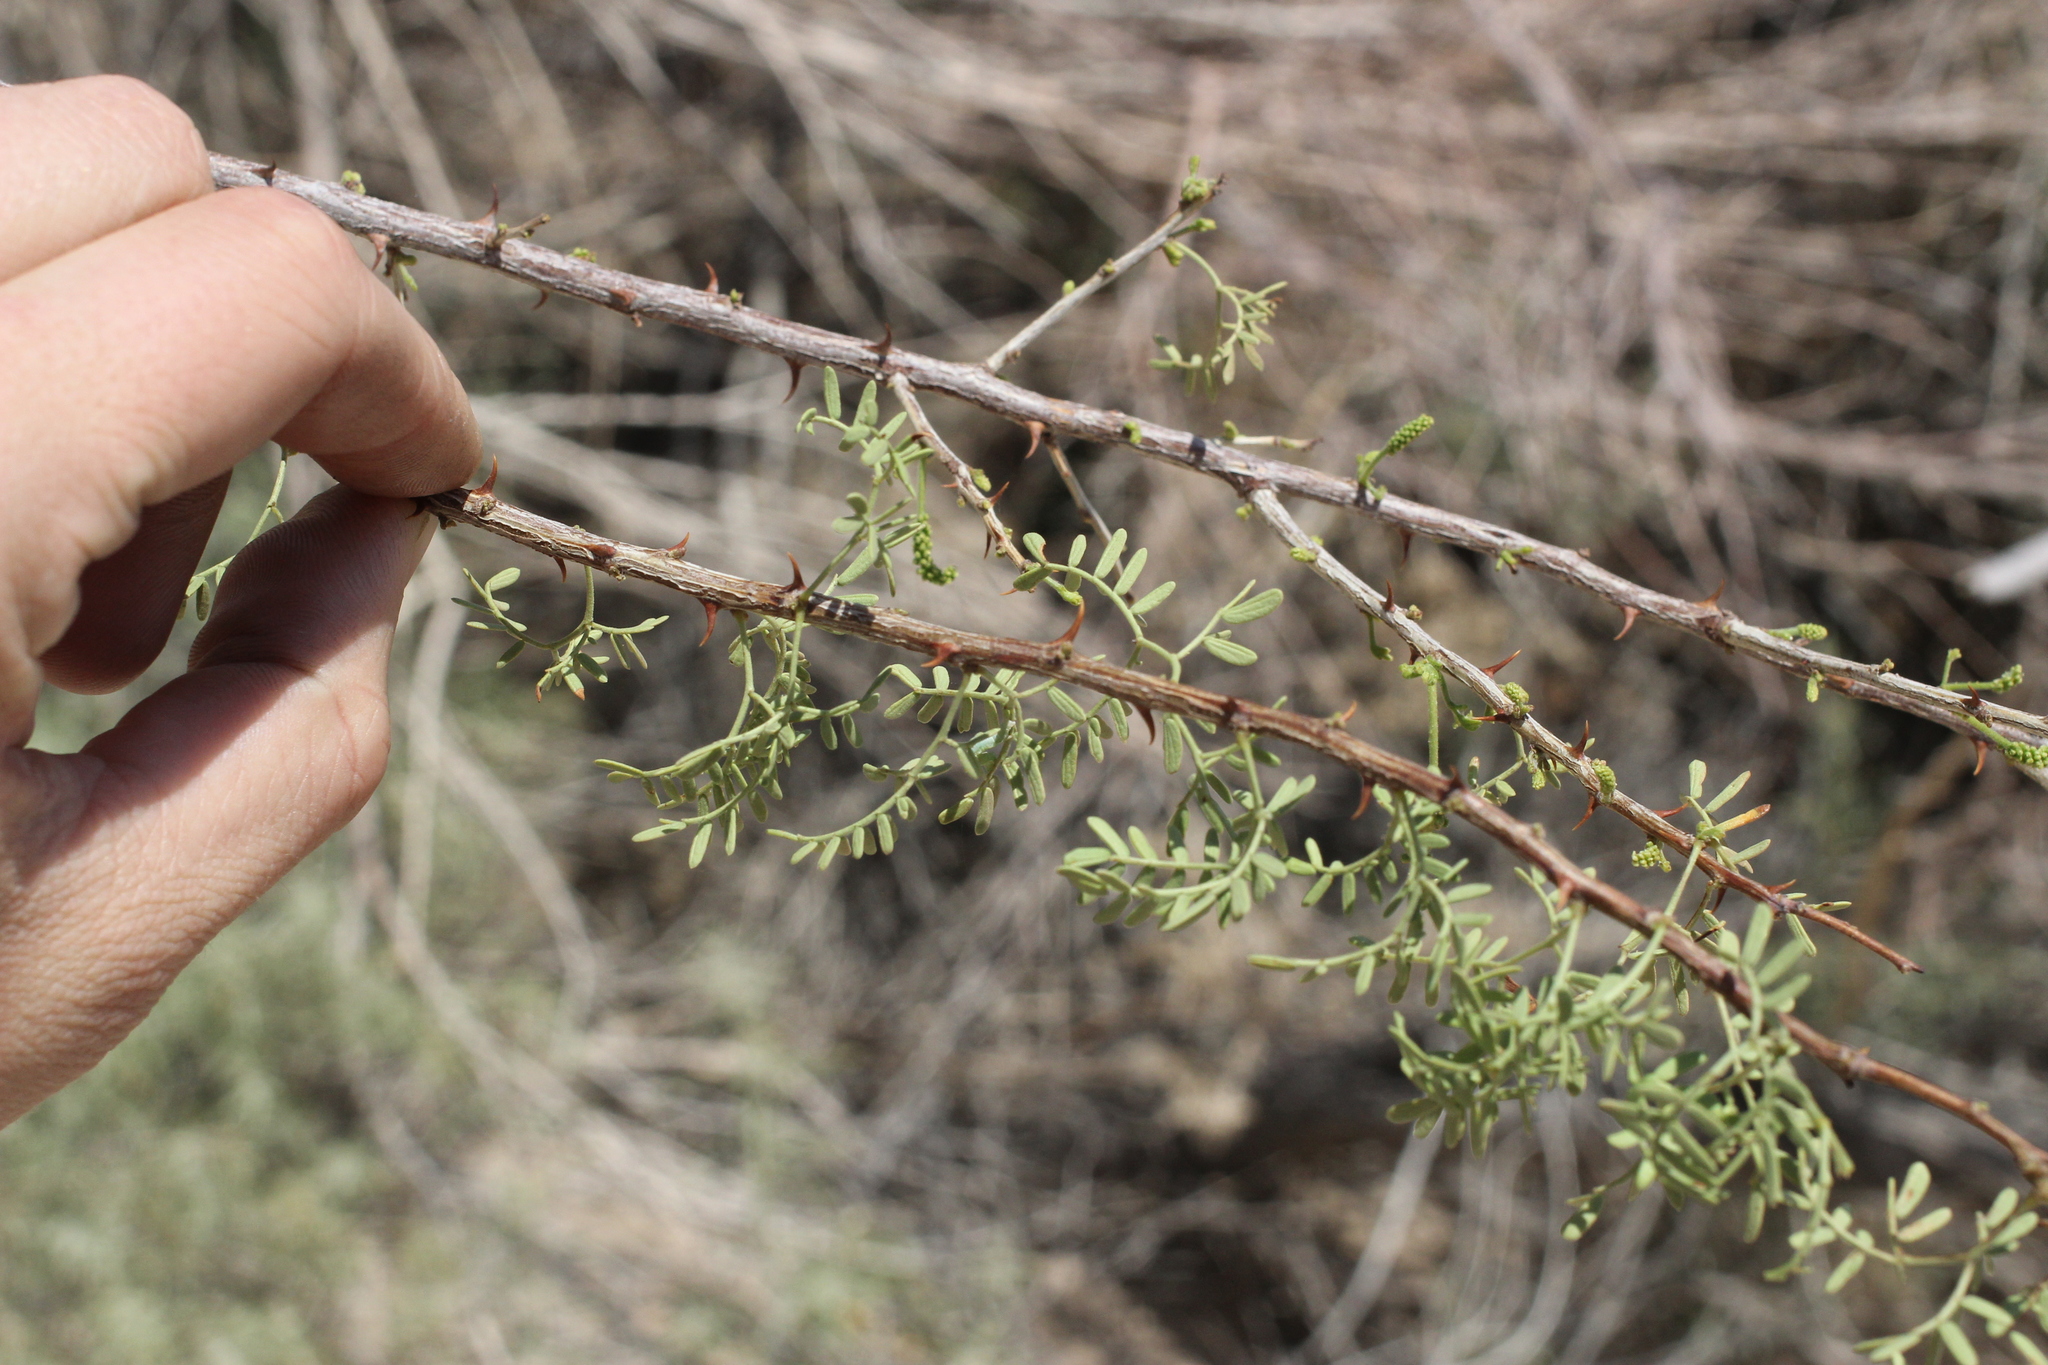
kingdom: Plantae
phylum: Tracheophyta
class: Magnoliopsida
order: Fabales
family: Fabaceae
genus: Senegalia
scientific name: Senegalia greggii
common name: Texas-mimosa
